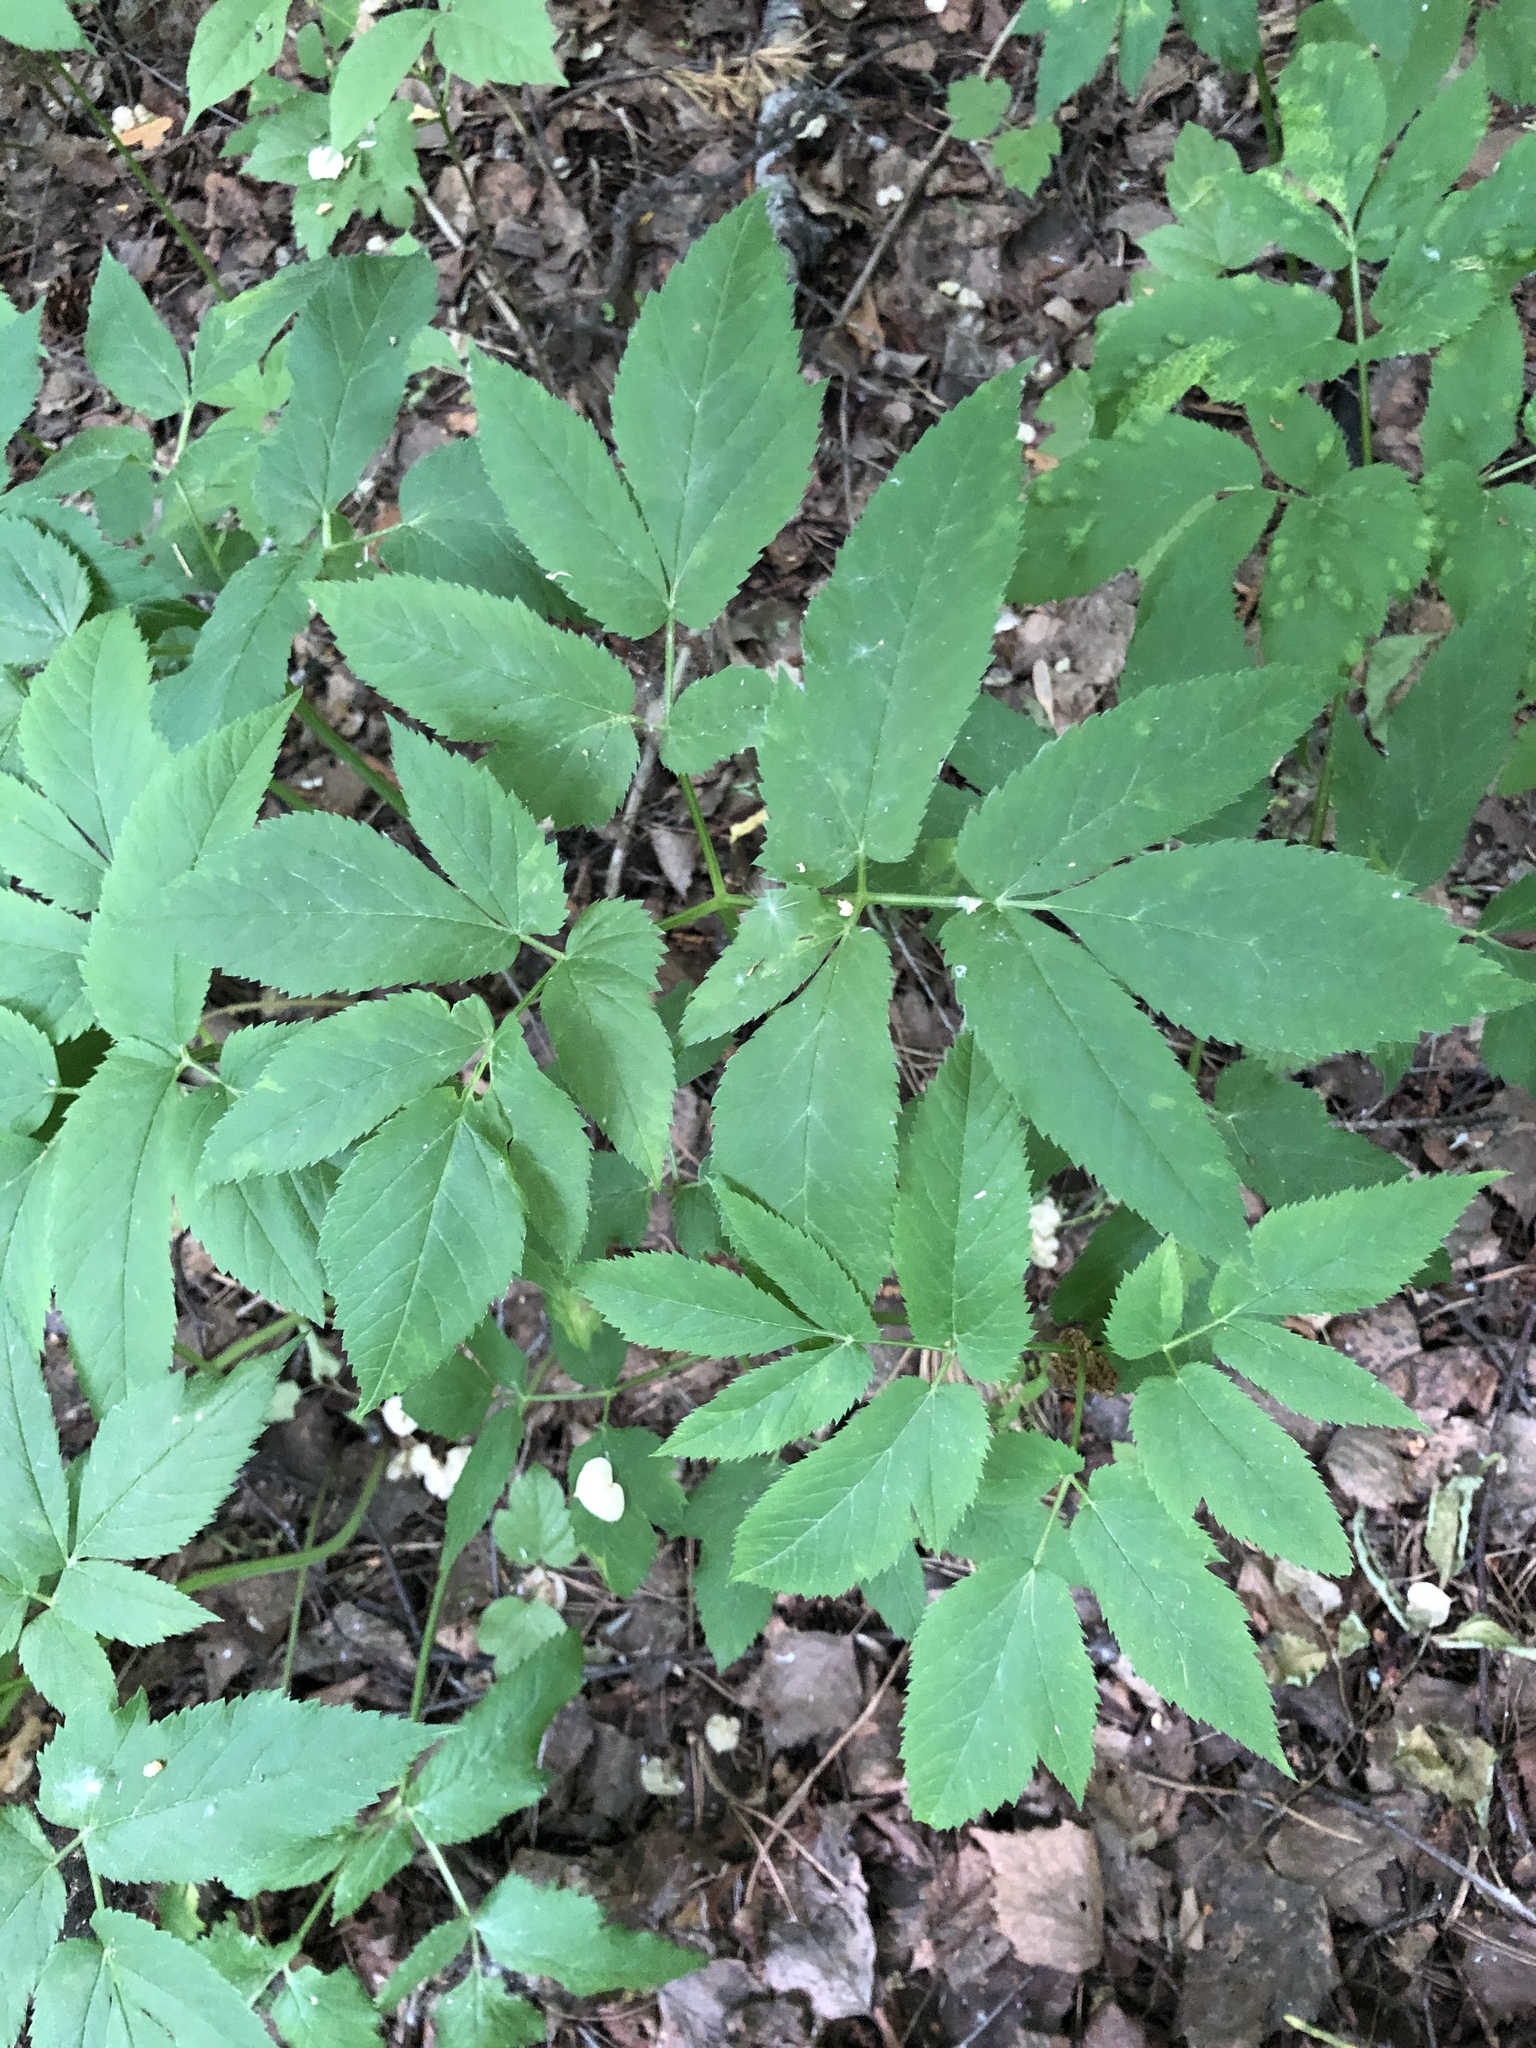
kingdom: Plantae
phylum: Tracheophyta
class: Magnoliopsida
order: Apiales
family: Apiaceae
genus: Aegopodium
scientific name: Aegopodium podagraria
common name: Ground-elder
